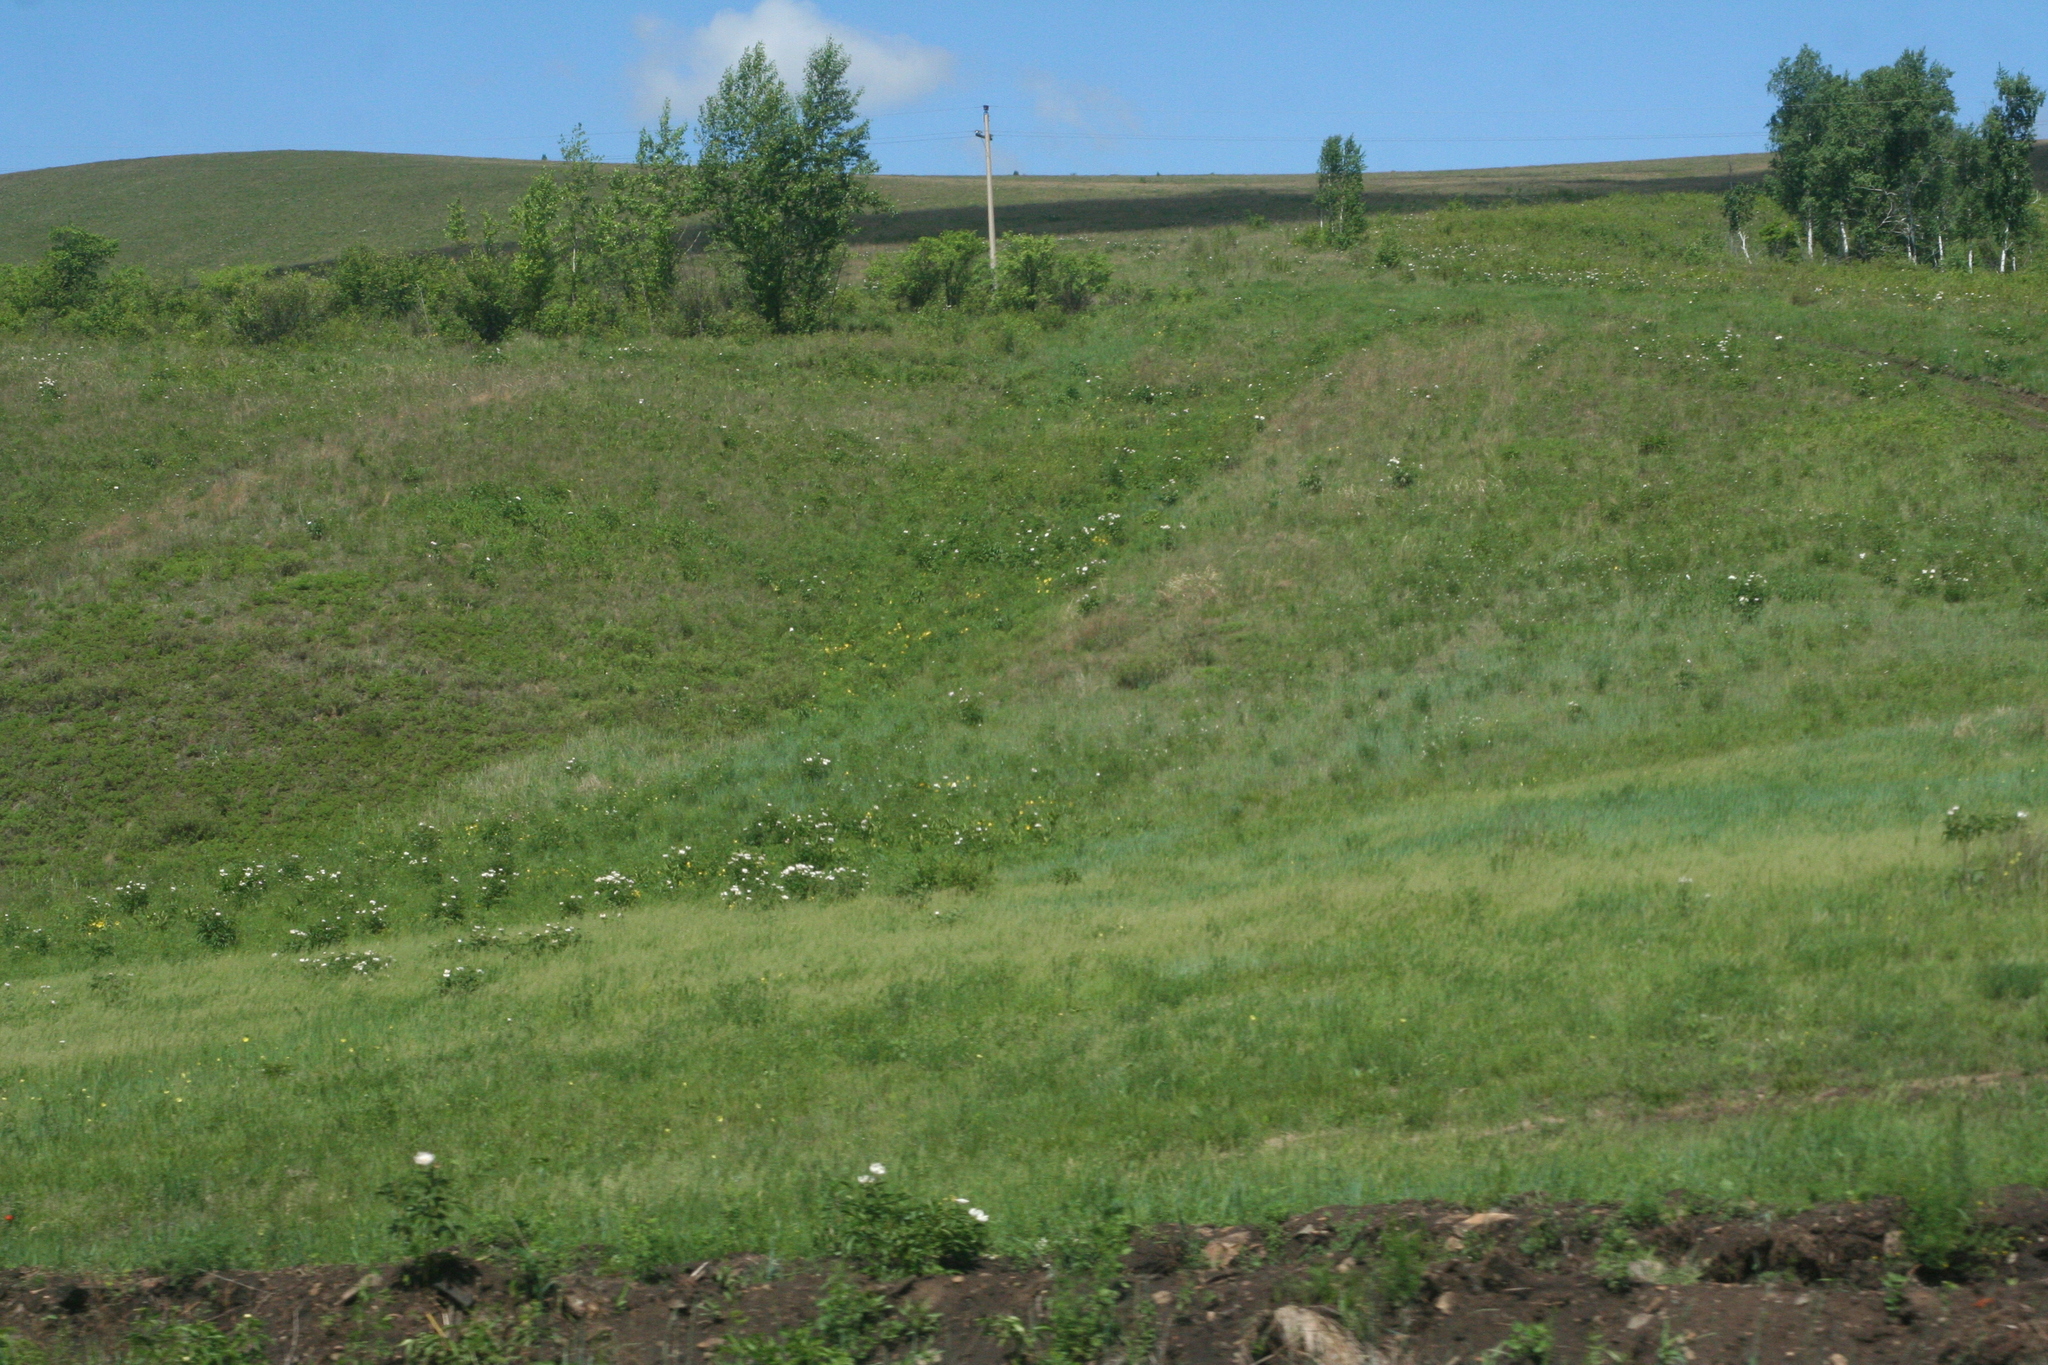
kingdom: Plantae
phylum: Tracheophyta
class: Magnoliopsida
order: Saxifragales
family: Paeoniaceae
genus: Paeonia
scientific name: Paeonia lactiflora
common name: Chinese peony
